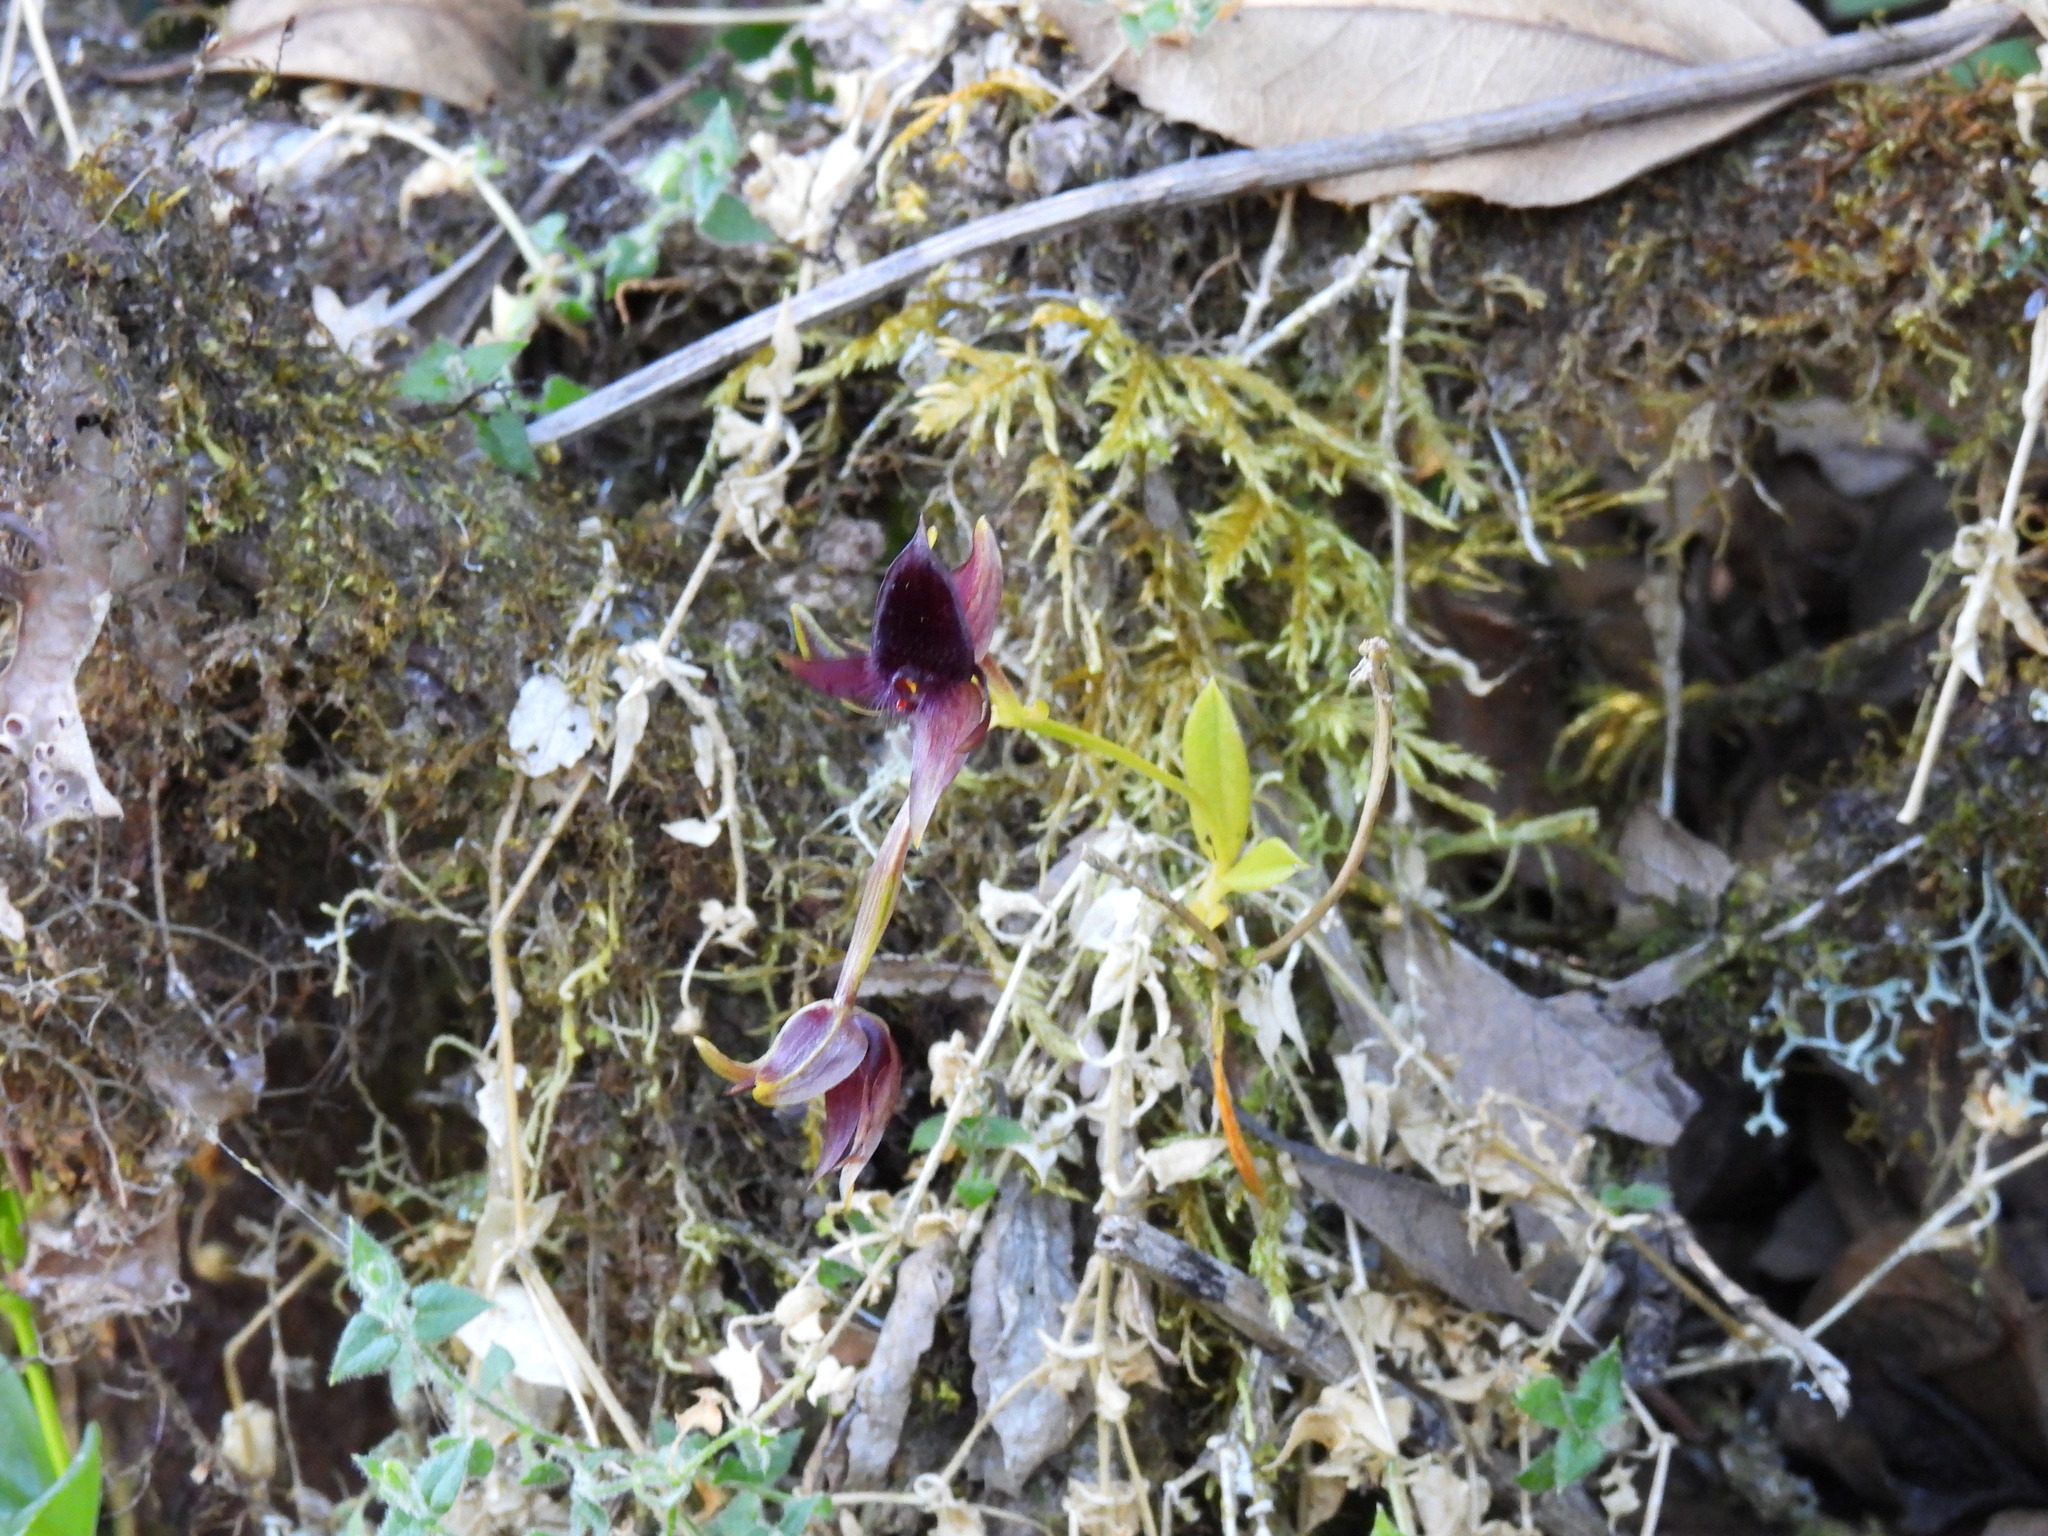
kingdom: Plantae
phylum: Tracheophyta
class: Liliopsida
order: Asparagales
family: Orchidaceae
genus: Telipogon
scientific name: Telipogon falcatus
